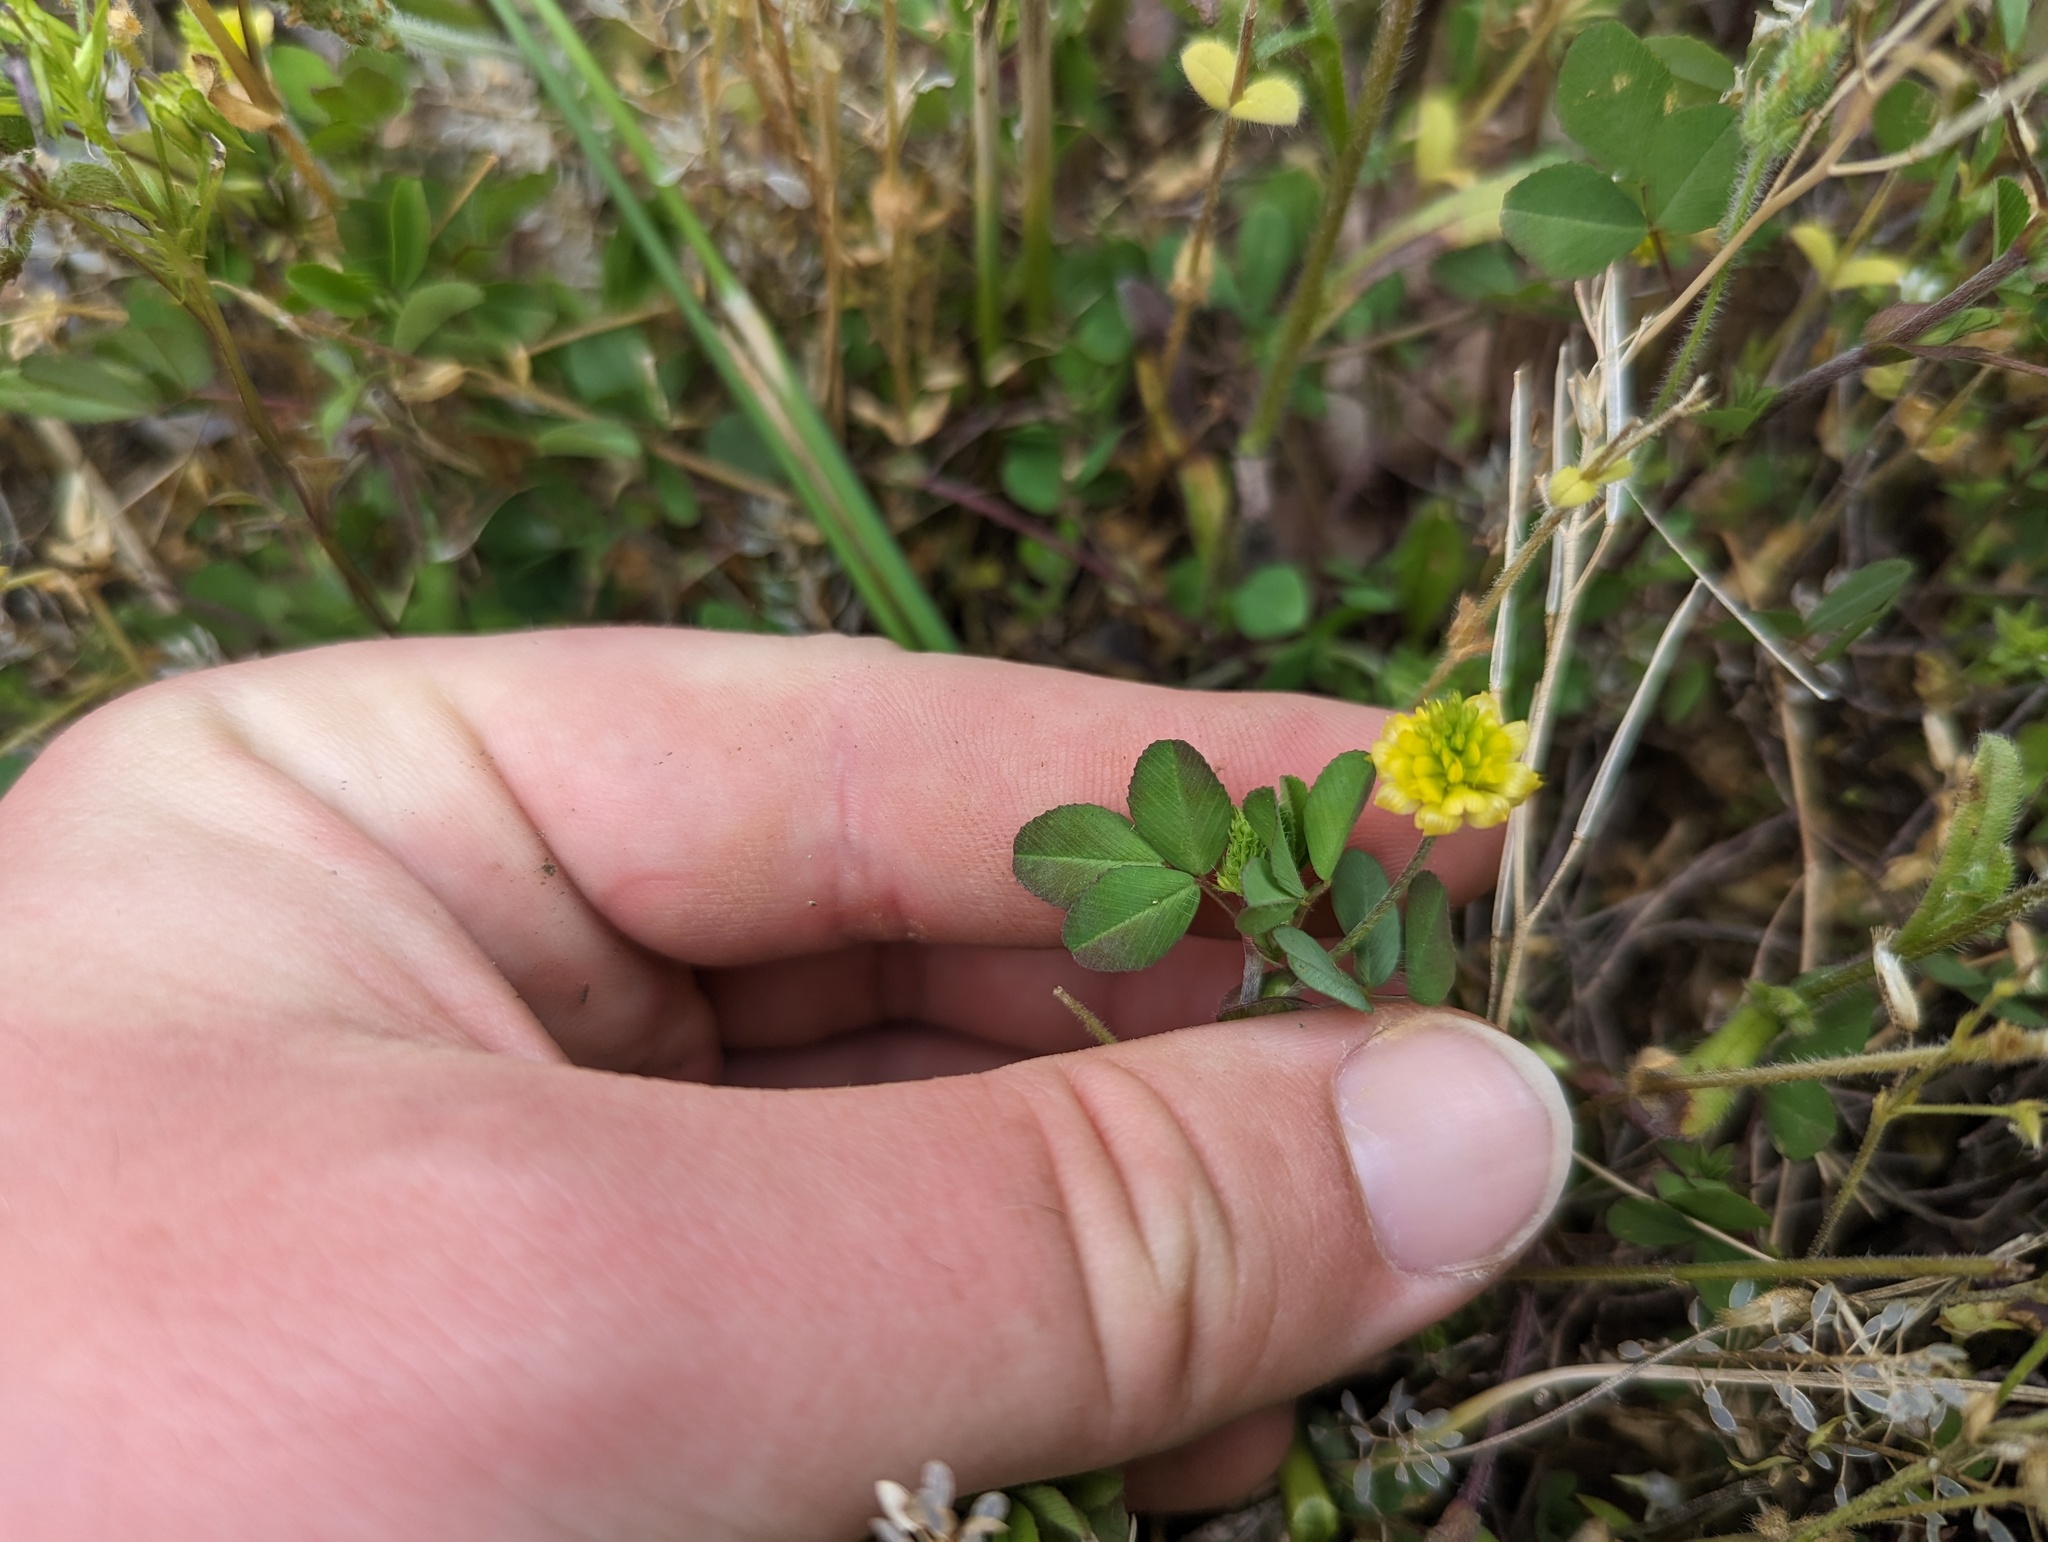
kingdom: Plantae
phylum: Tracheophyta
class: Magnoliopsida
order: Fabales
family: Fabaceae
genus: Trifolium
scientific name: Trifolium campestre
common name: Field clover
